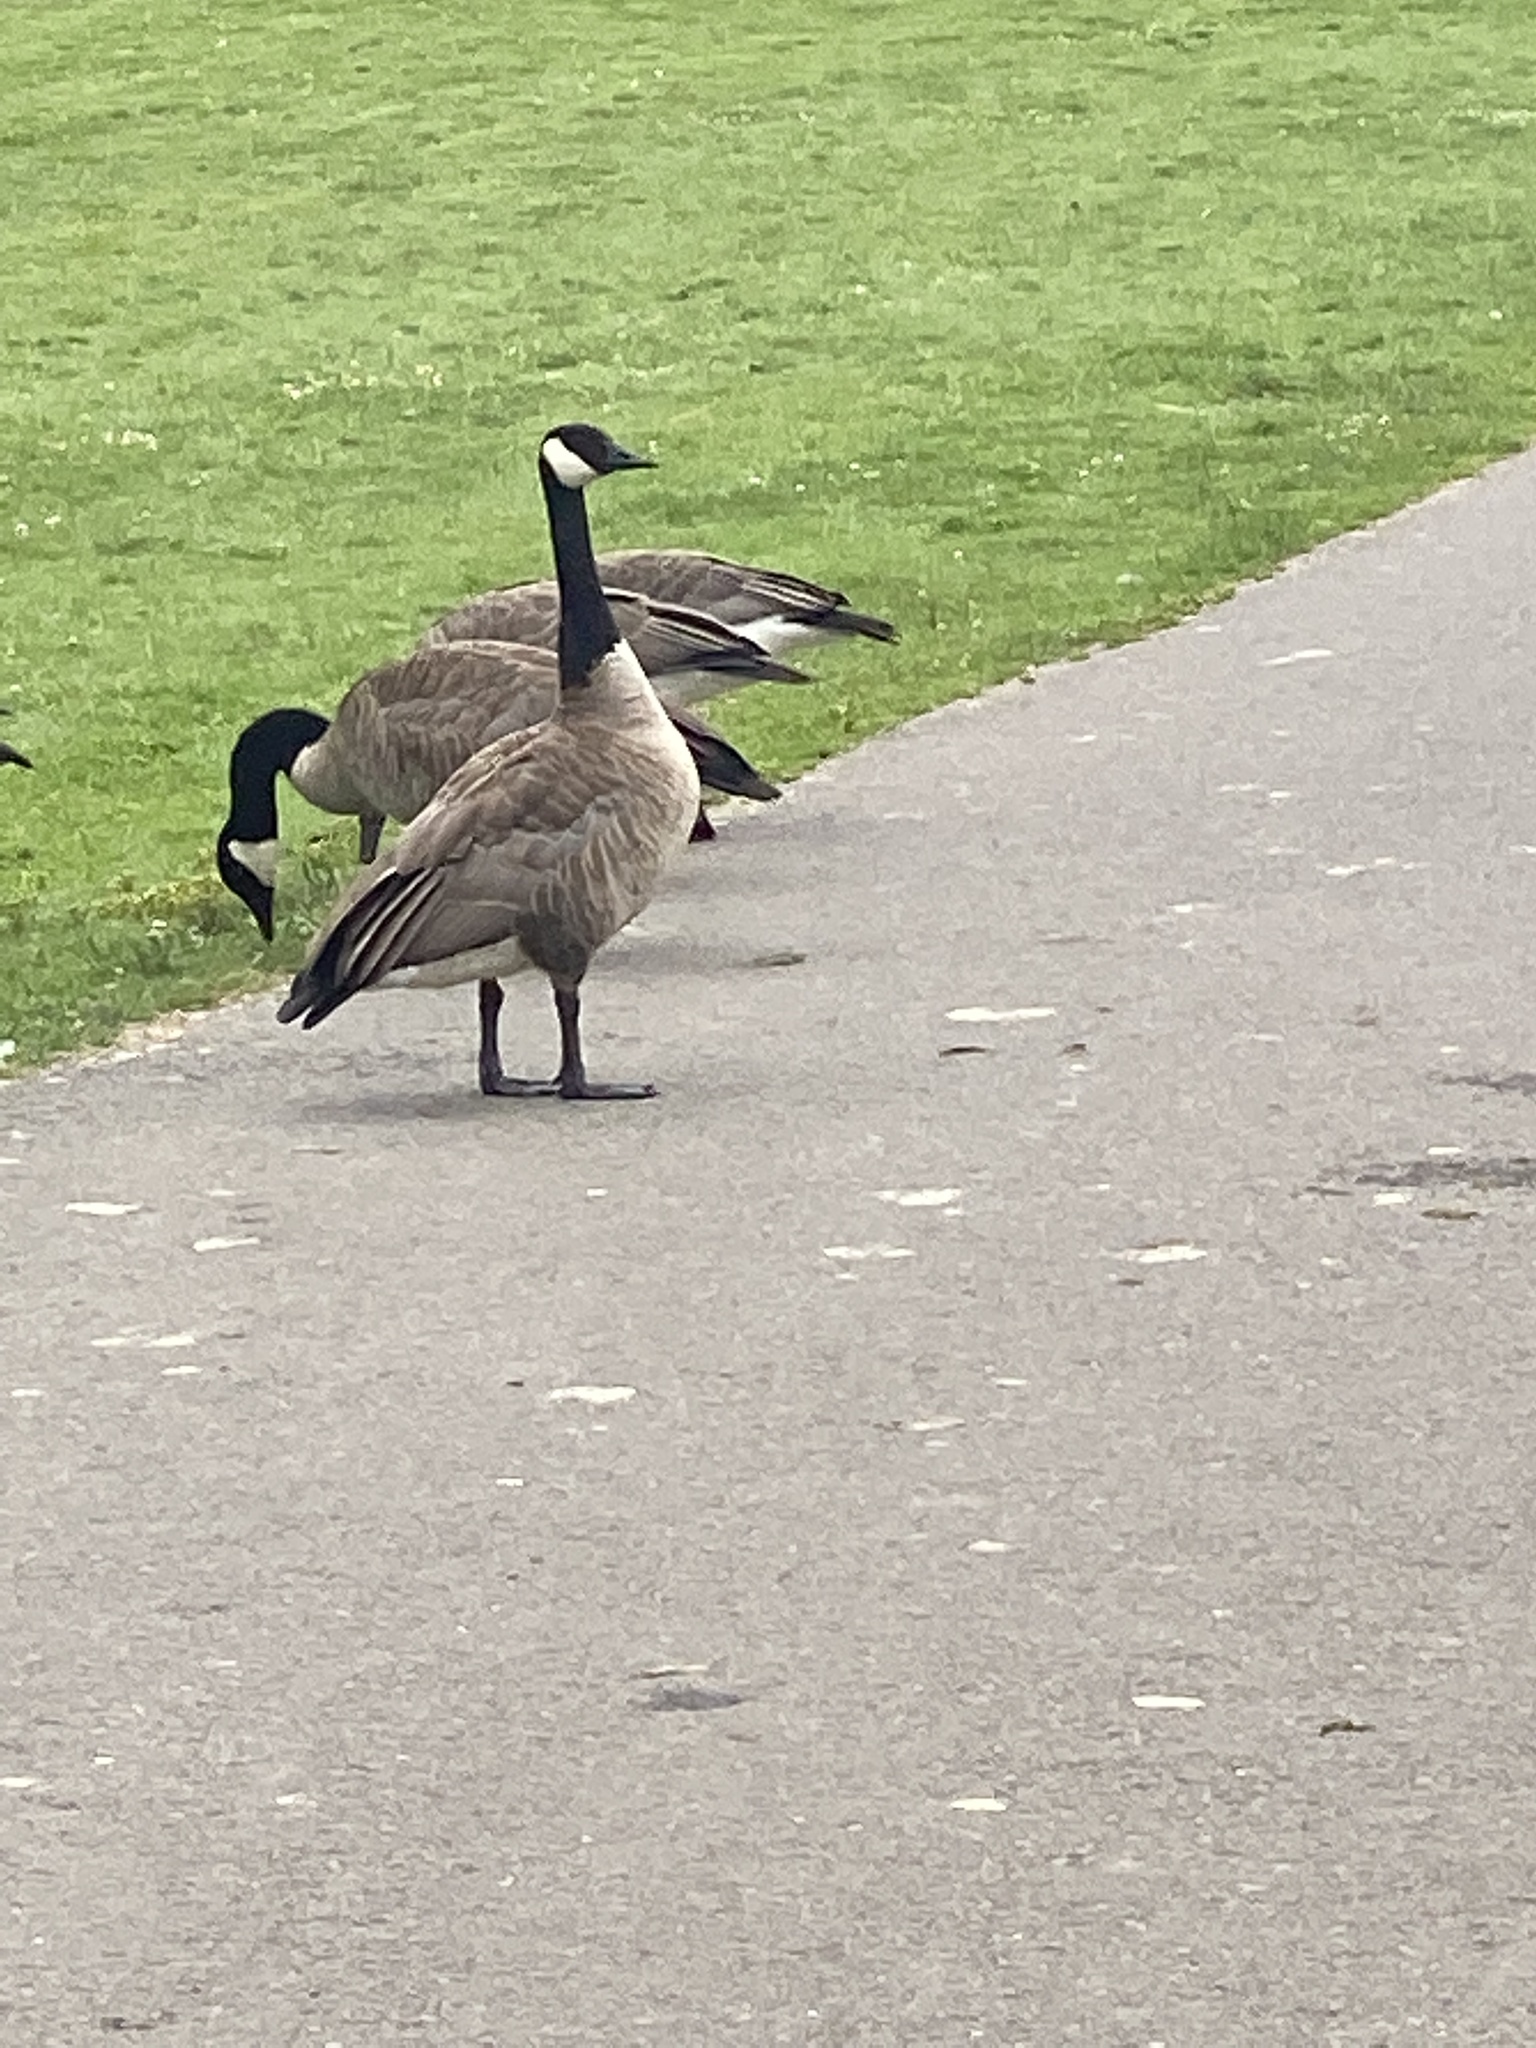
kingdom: Animalia
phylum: Chordata
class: Aves
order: Anseriformes
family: Anatidae
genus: Branta
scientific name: Branta canadensis
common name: Canada goose
